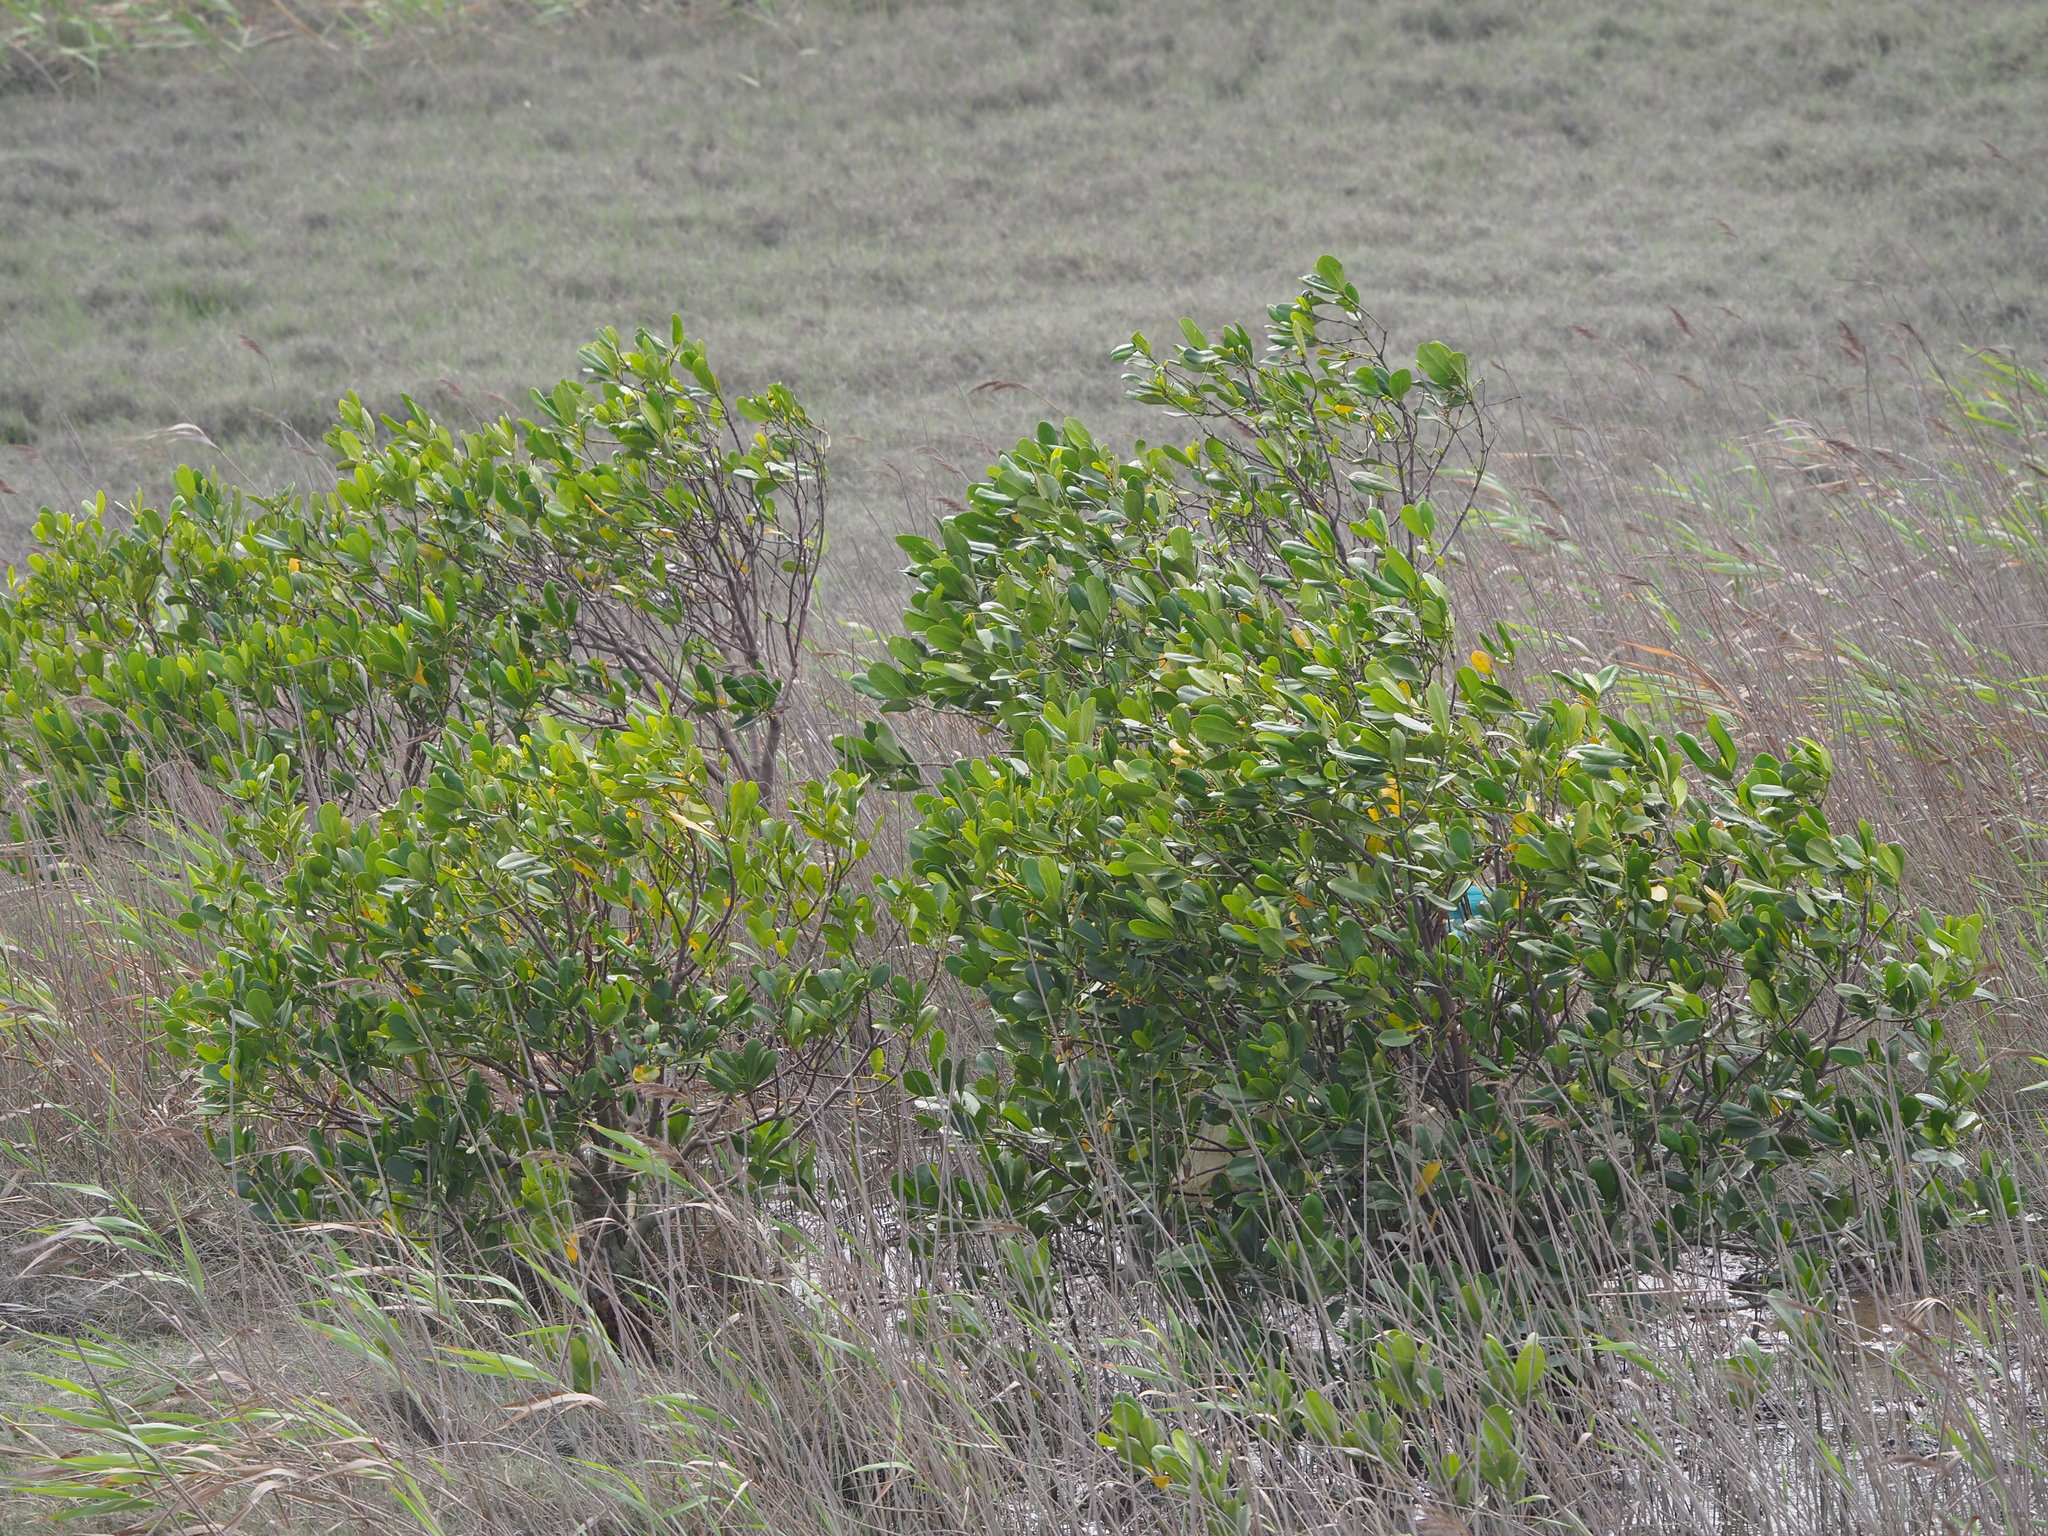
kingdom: Plantae
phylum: Tracheophyta
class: Magnoliopsida
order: Malpighiales
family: Rhizophoraceae
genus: Kandelia
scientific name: Kandelia obovata
